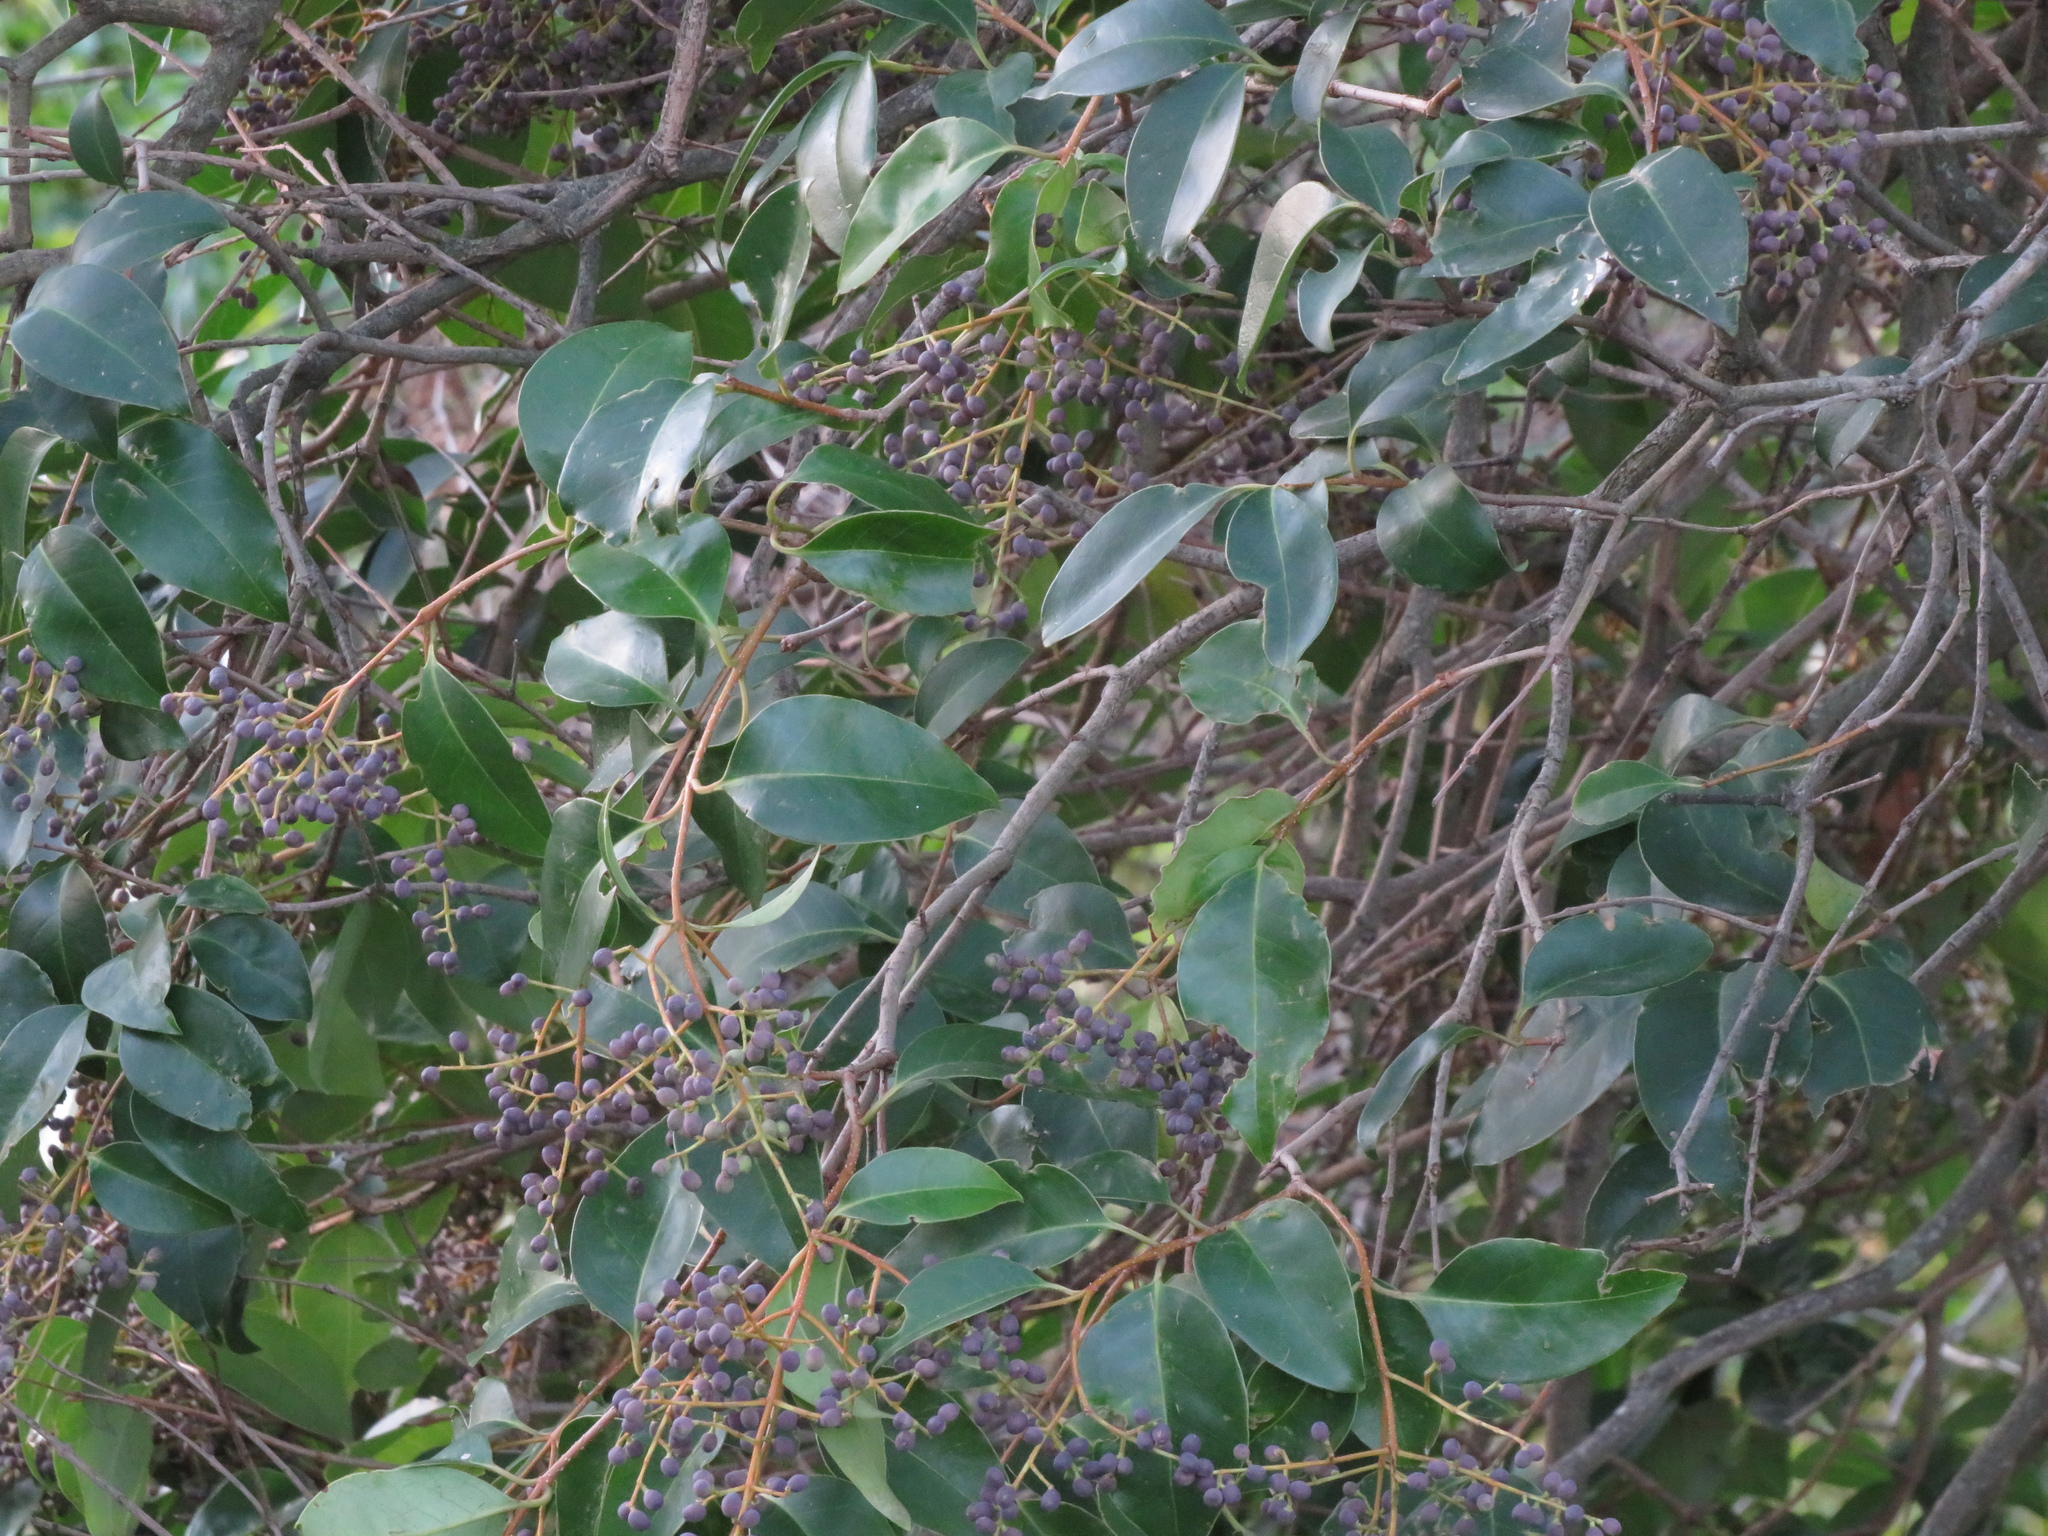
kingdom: Plantae
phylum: Tracheophyta
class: Magnoliopsida
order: Lamiales
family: Oleaceae
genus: Ligustrum
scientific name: Ligustrum lucidum
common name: Glossy privet
